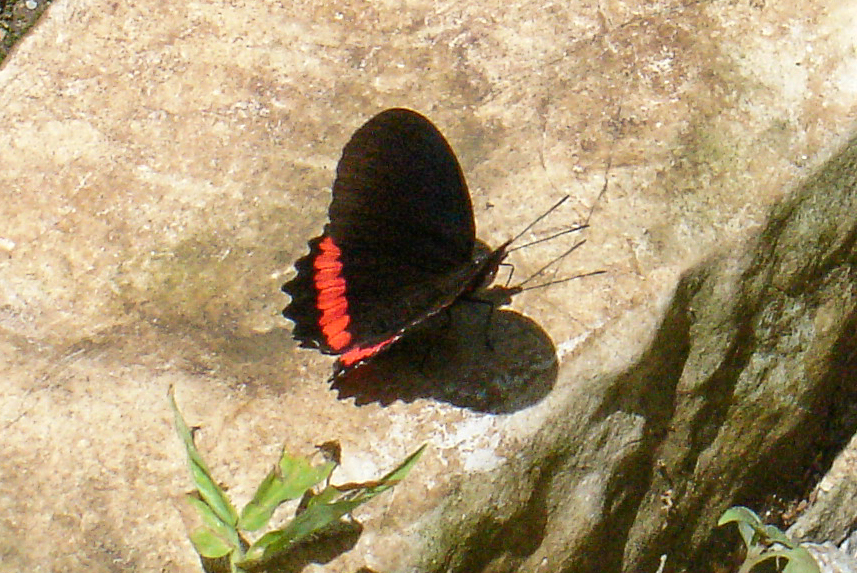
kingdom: Animalia
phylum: Arthropoda
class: Insecta
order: Lepidoptera
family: Nymphalidae
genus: Biblis
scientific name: Biblis aganisa
